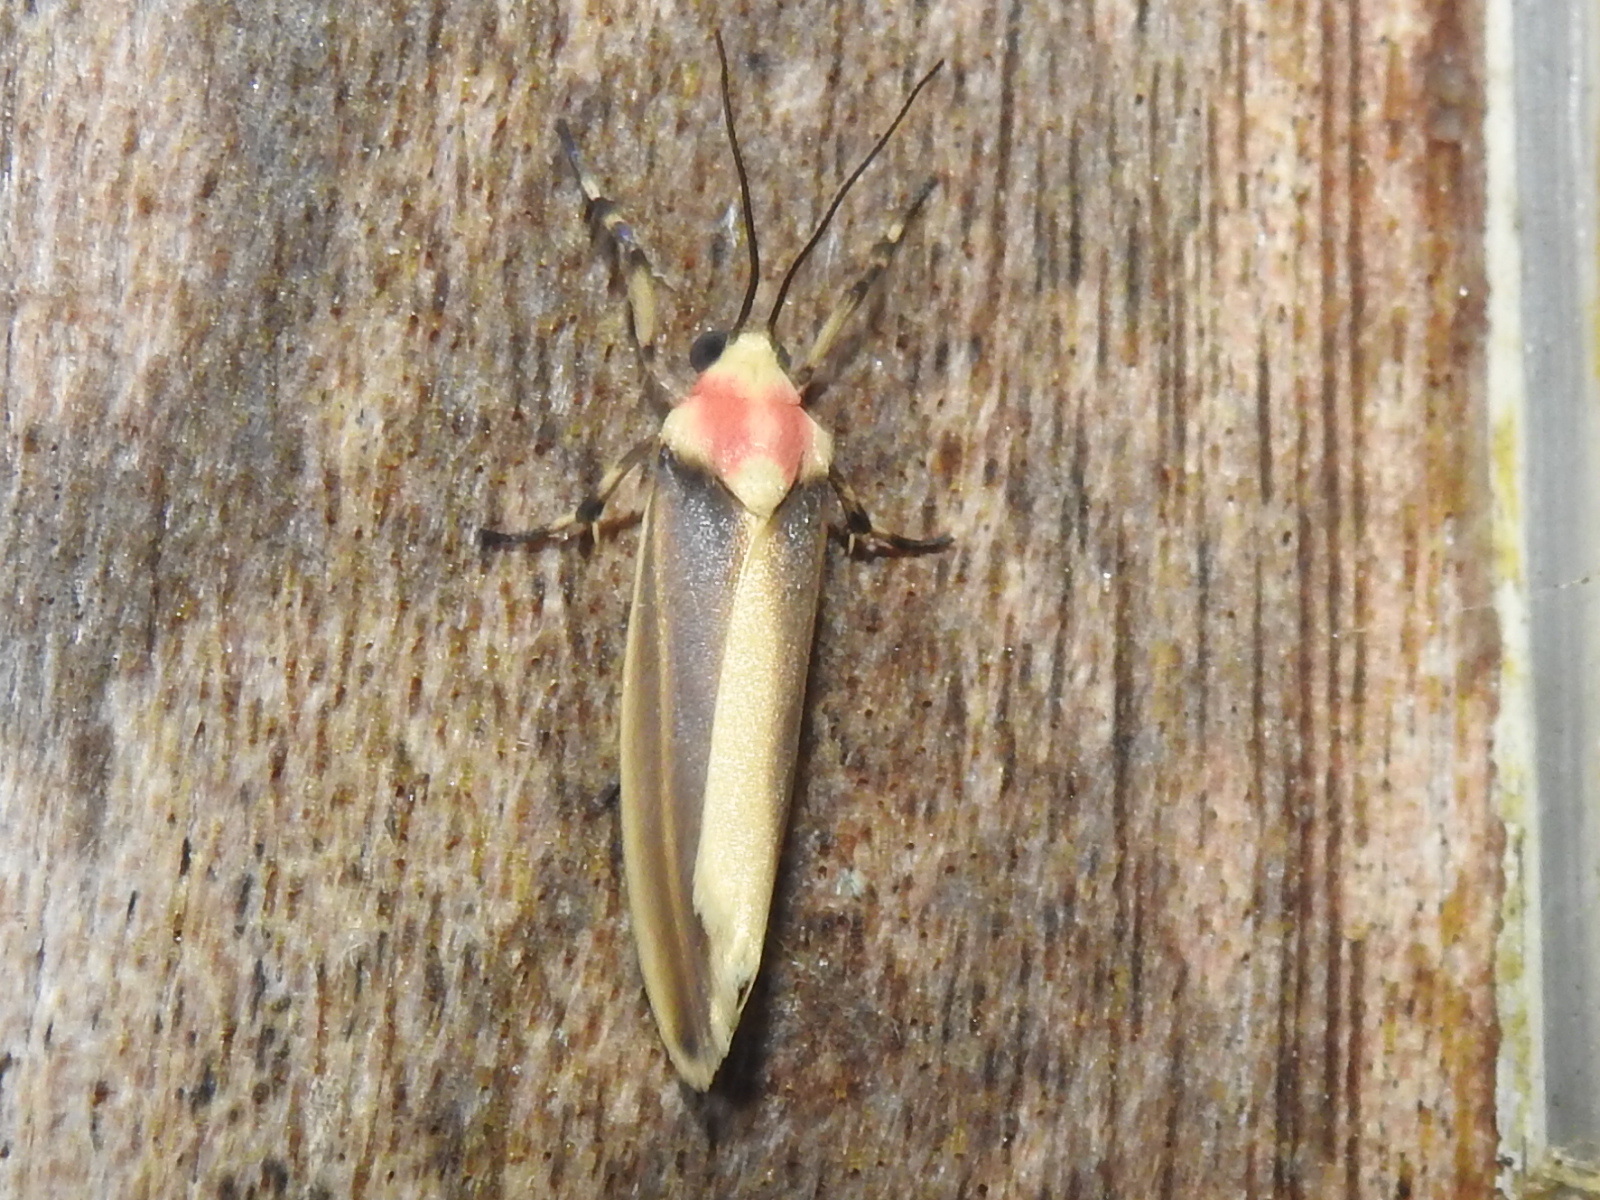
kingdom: Animalia
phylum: Arthropoda
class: Insecta
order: Lepidoptera
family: Erebidae
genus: Rhabdatomis
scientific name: Rhabdatomis laudamia
